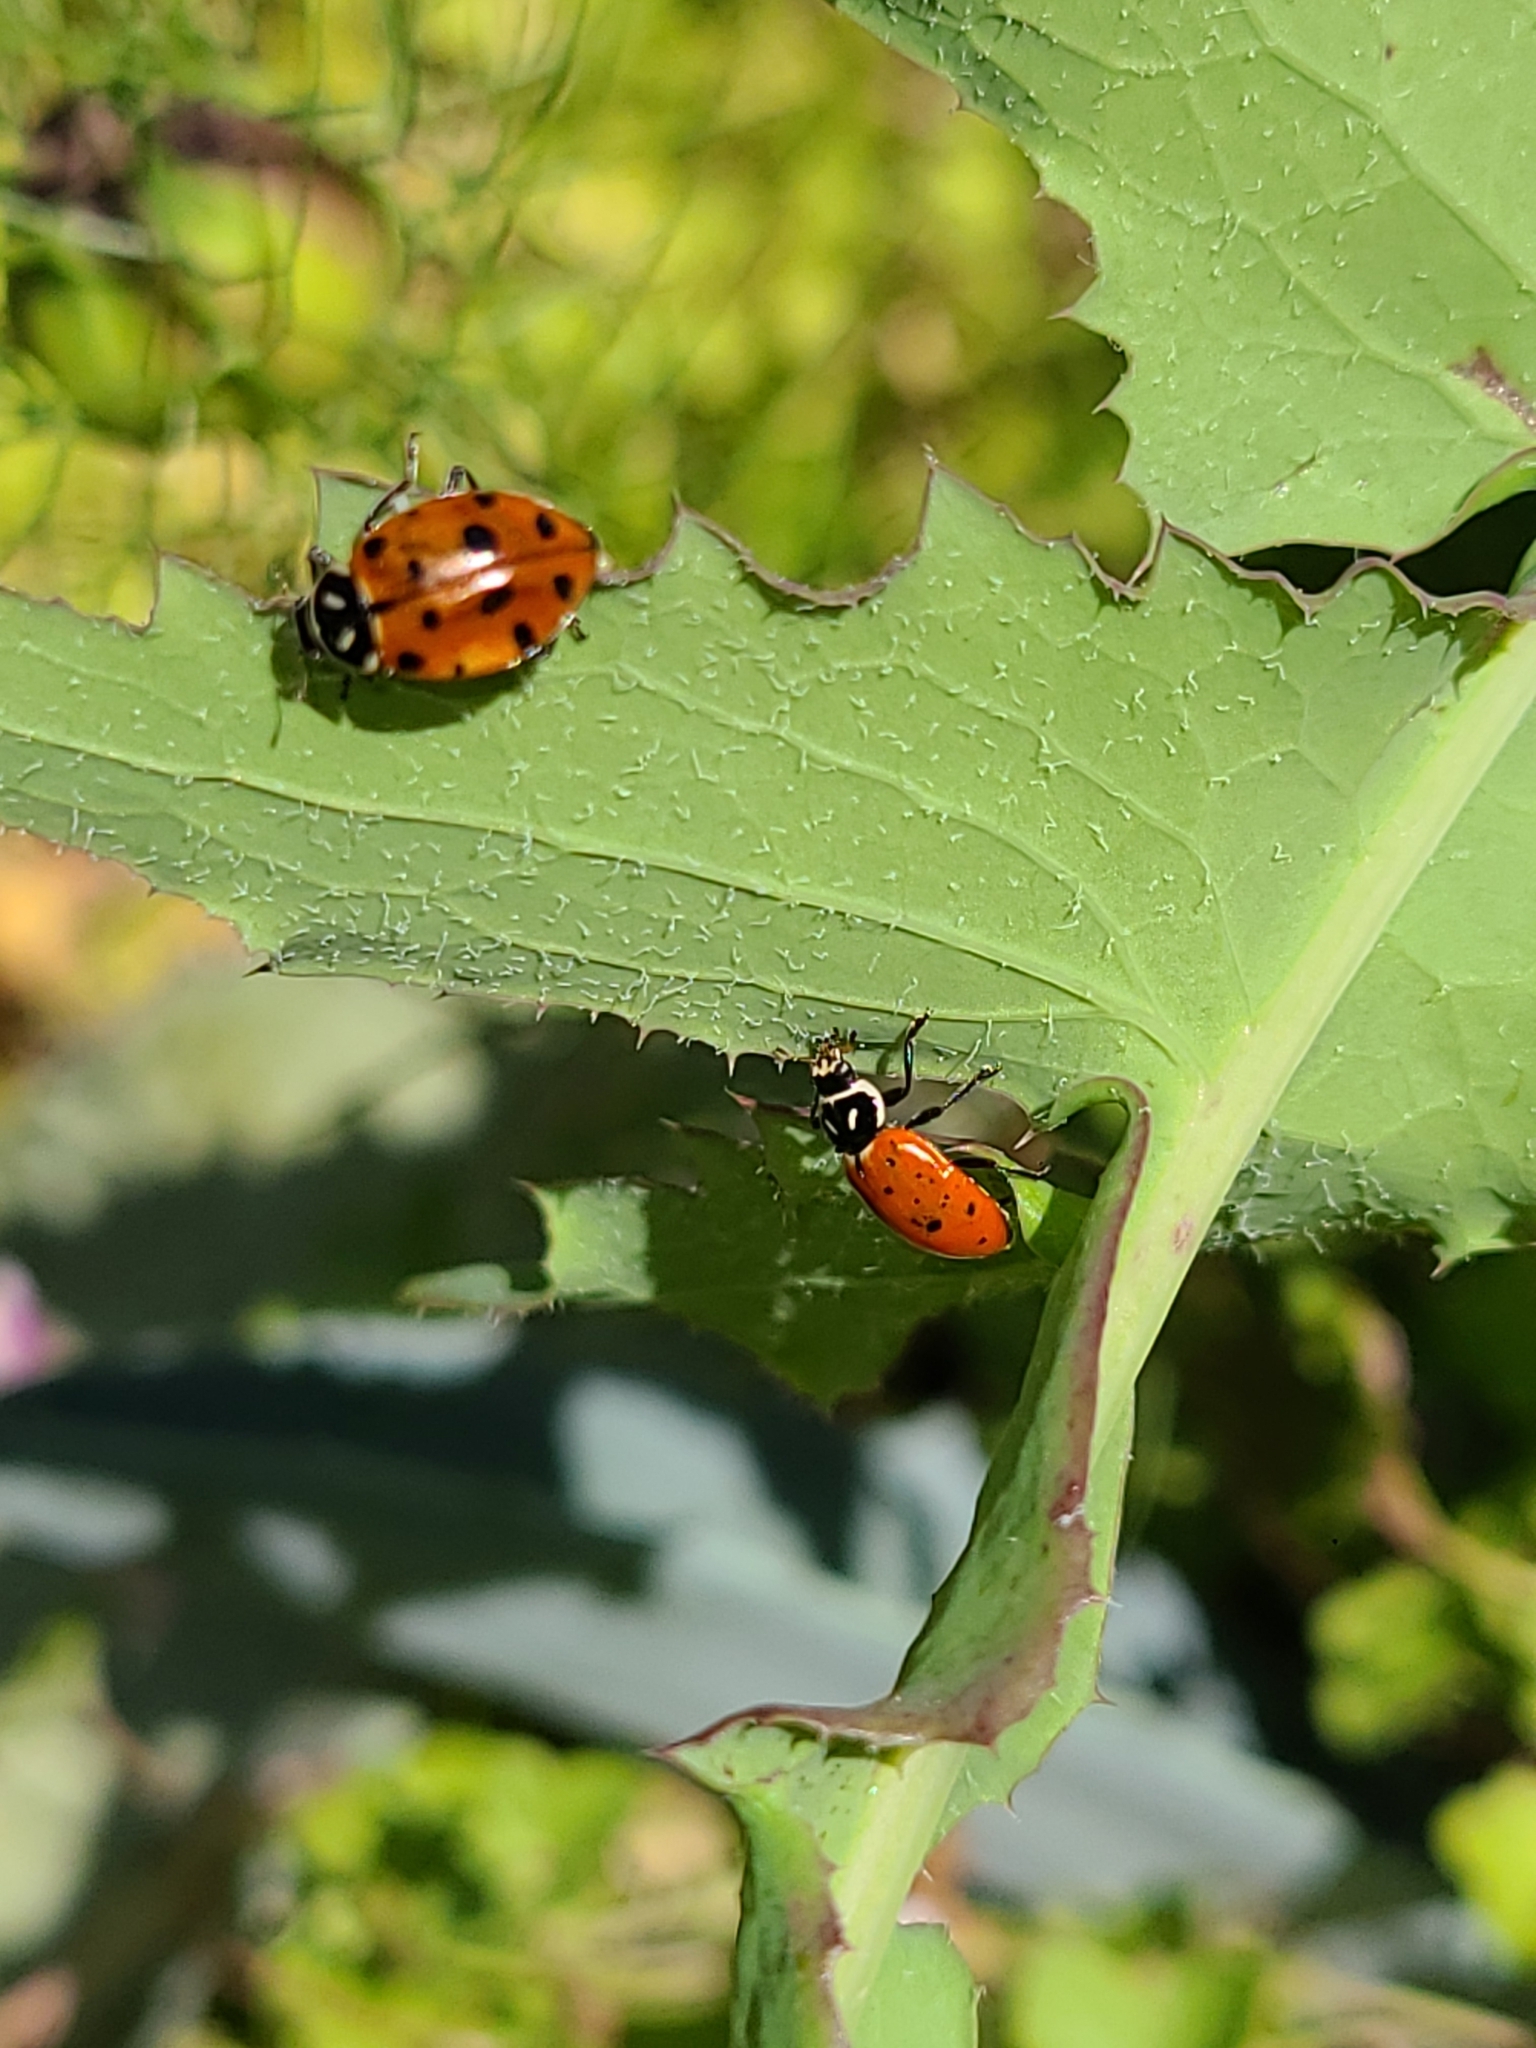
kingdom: Animalia
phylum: Arthropoda
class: Insecta
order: Coleoptera
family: Coccinellidae
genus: Hippodamia
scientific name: Hippodamia convergens
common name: Convergent lady beetle
